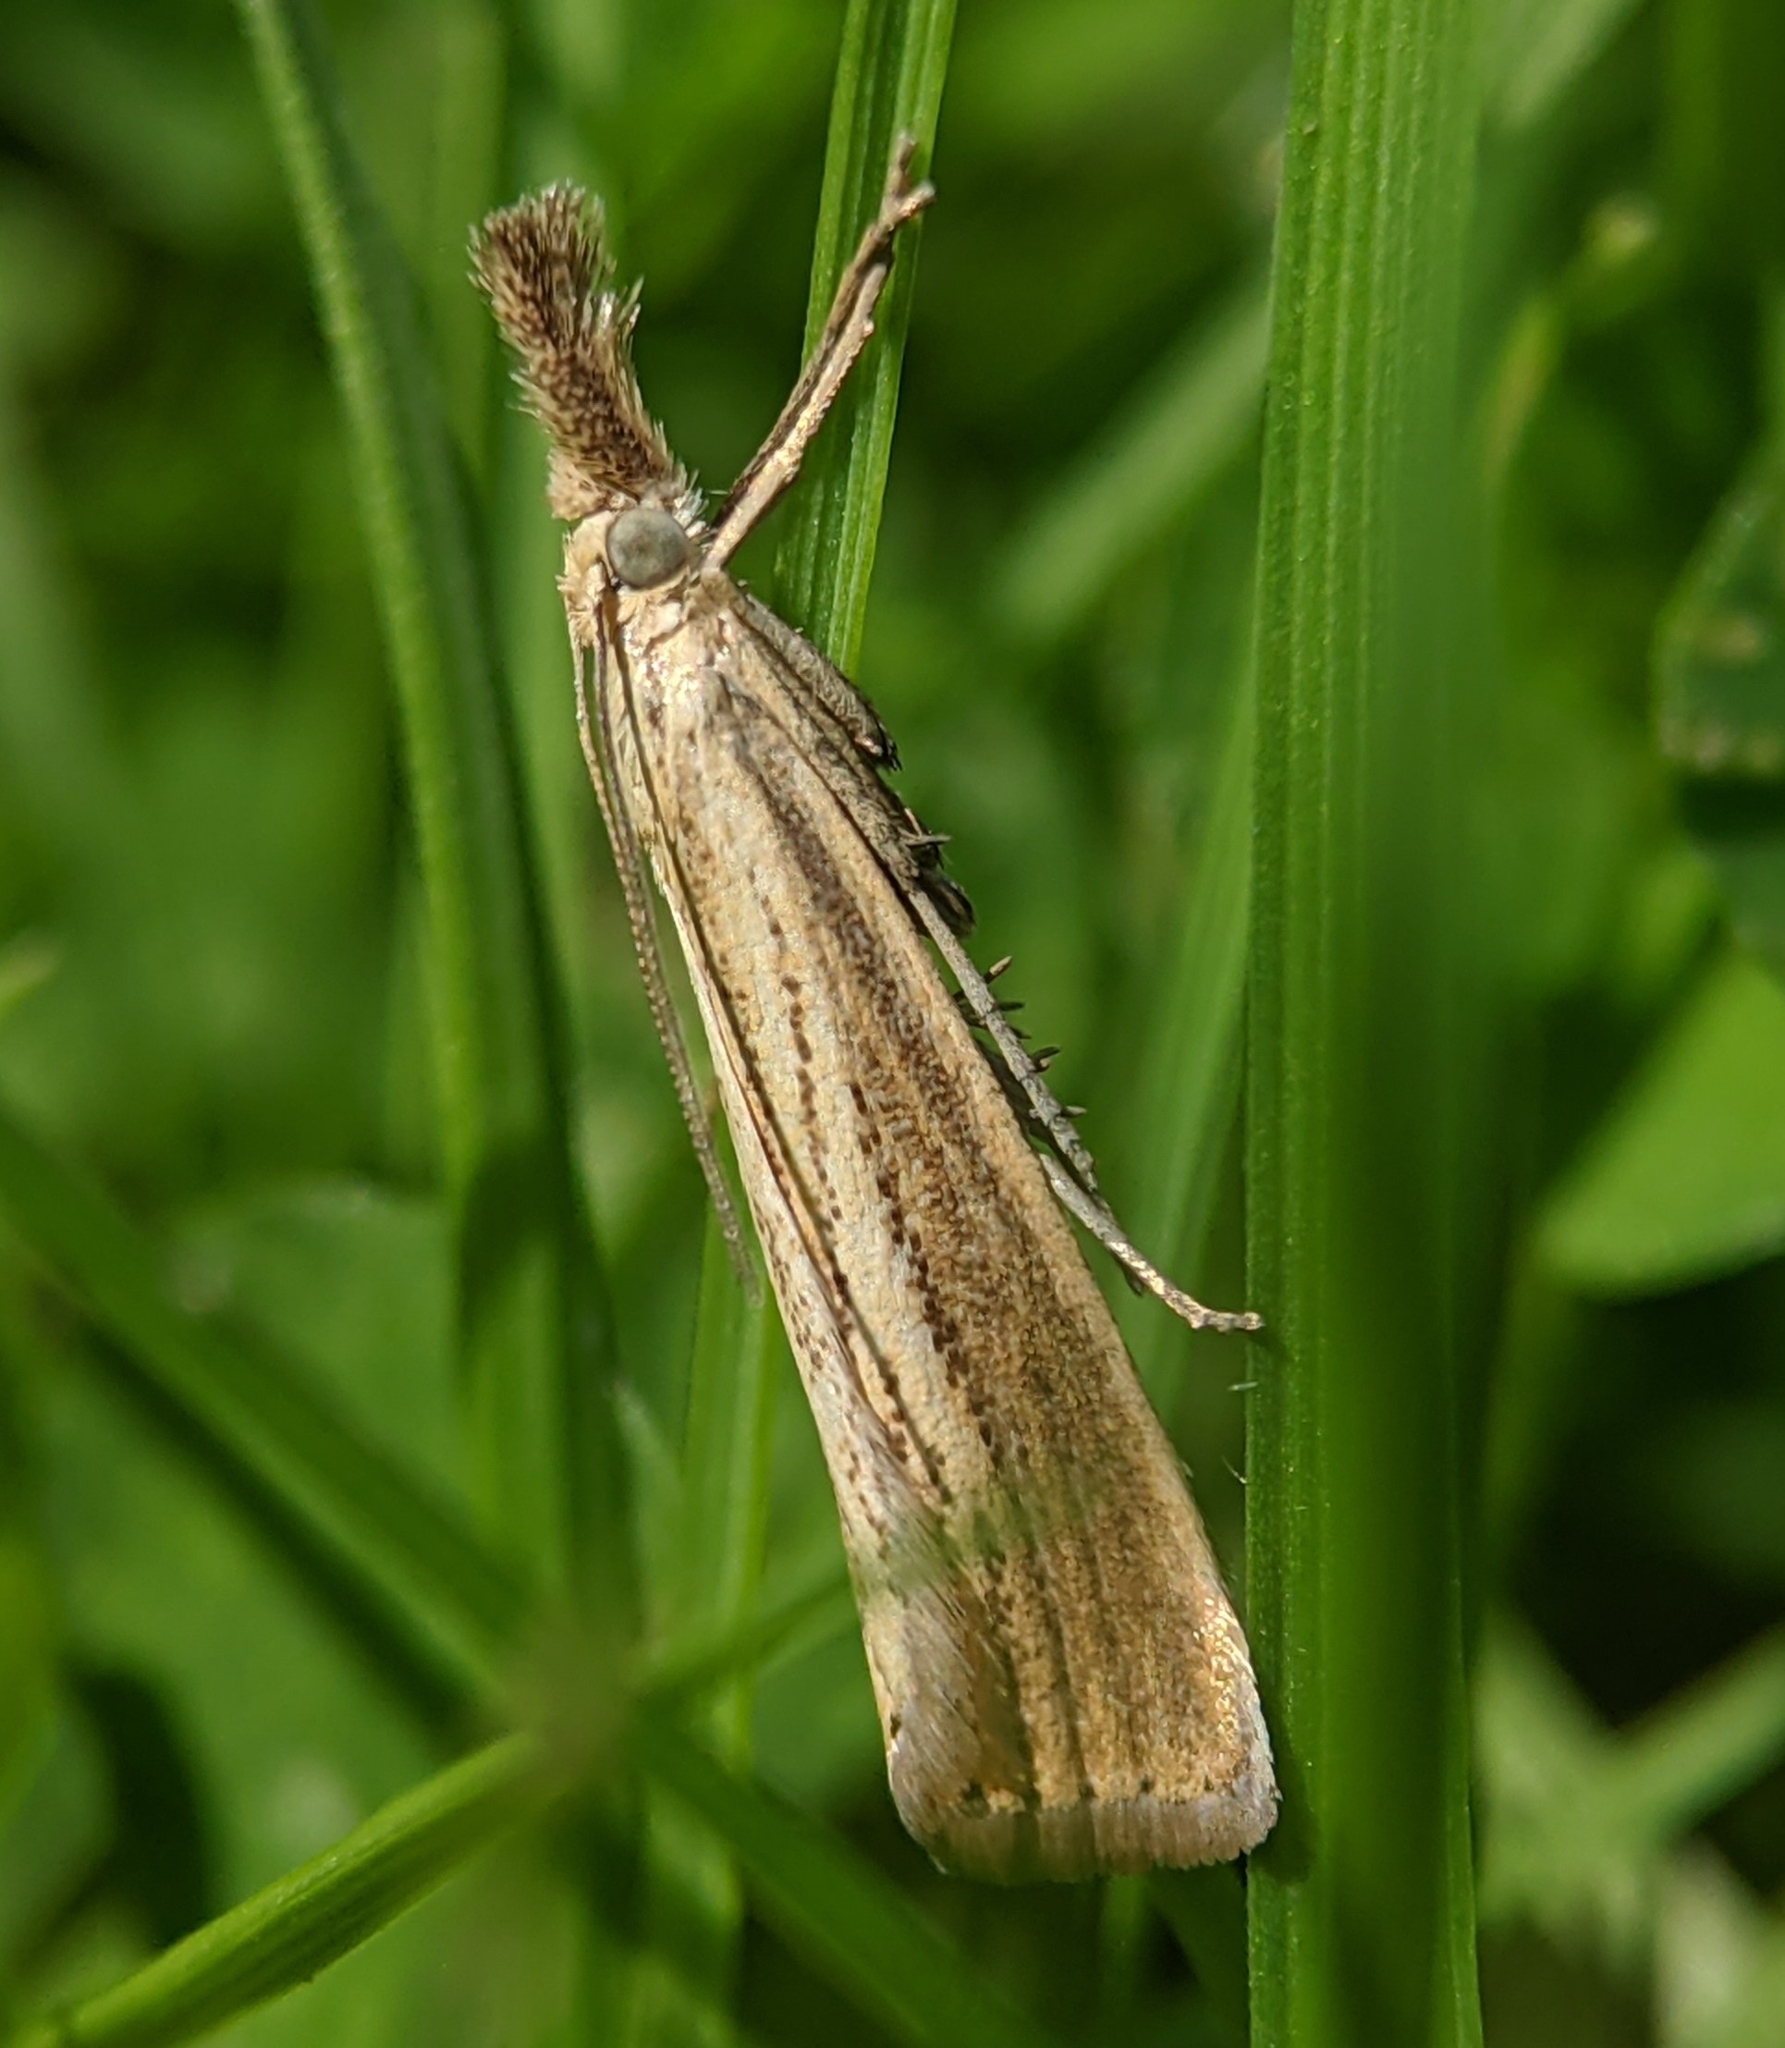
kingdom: Animalia
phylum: Arthropoda
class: Insecta
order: Lepidoptera
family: Crambidae
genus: Agriphila
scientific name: Agriphila straminella
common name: Straw grass-veneer
